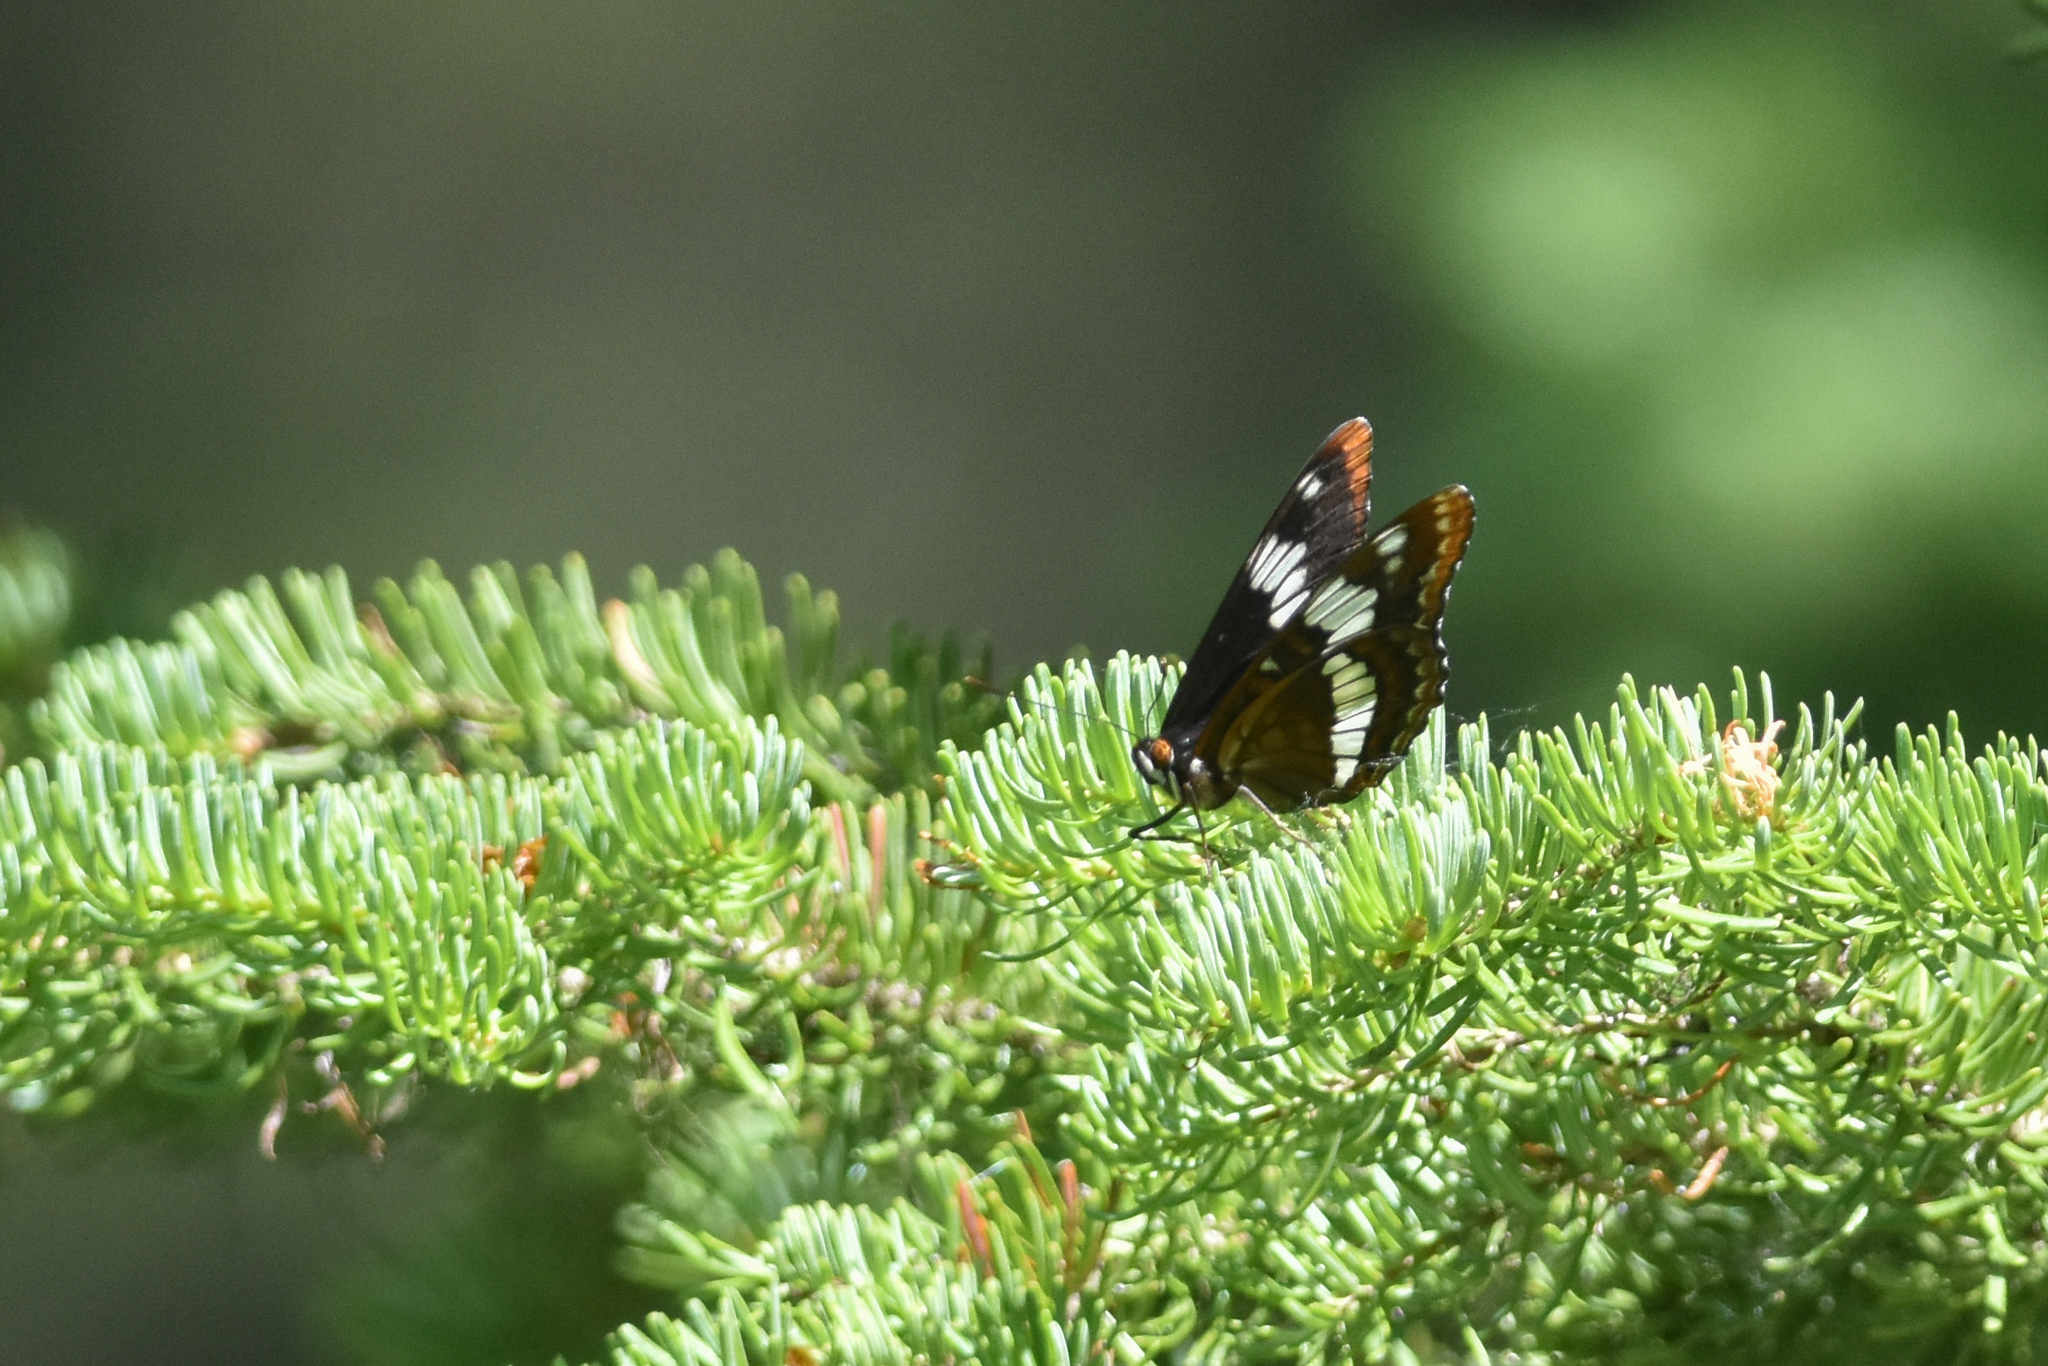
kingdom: Animalia
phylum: Arthropoda
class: Insecta
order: Lepidoptera
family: Nymphalidae
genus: Limenitis
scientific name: Limenitis lorquini
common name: Lorquin's admiral
